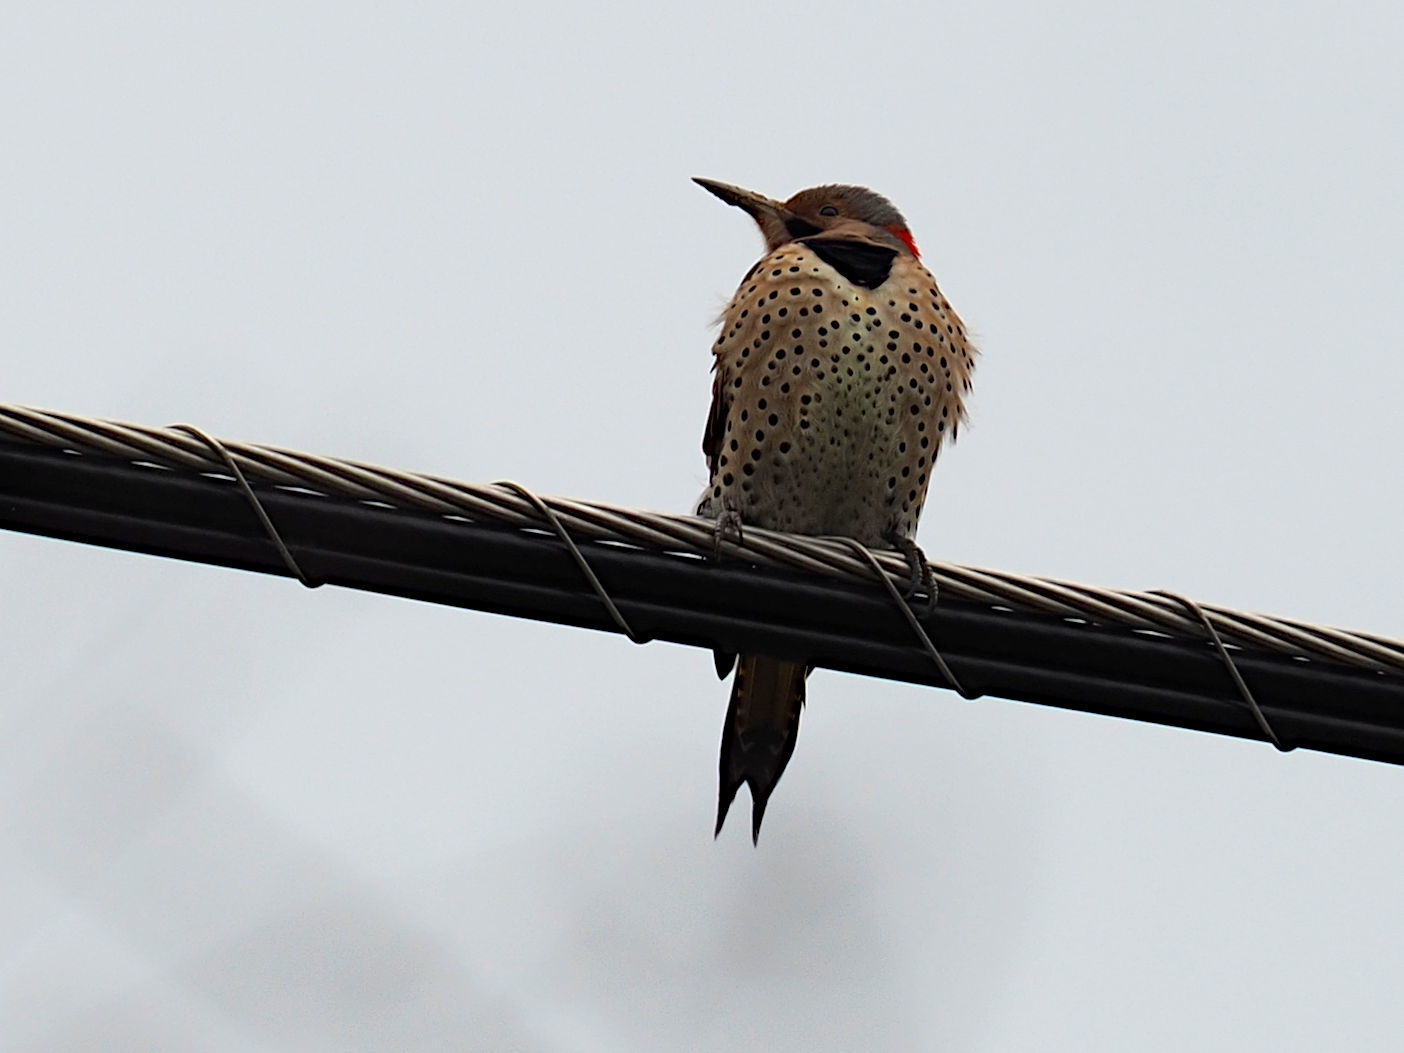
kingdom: Animalia
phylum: Chordata
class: Aves
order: Piciformes
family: Picidae
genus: Colaptes
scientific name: Colaptes auratus
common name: Northern flicker
